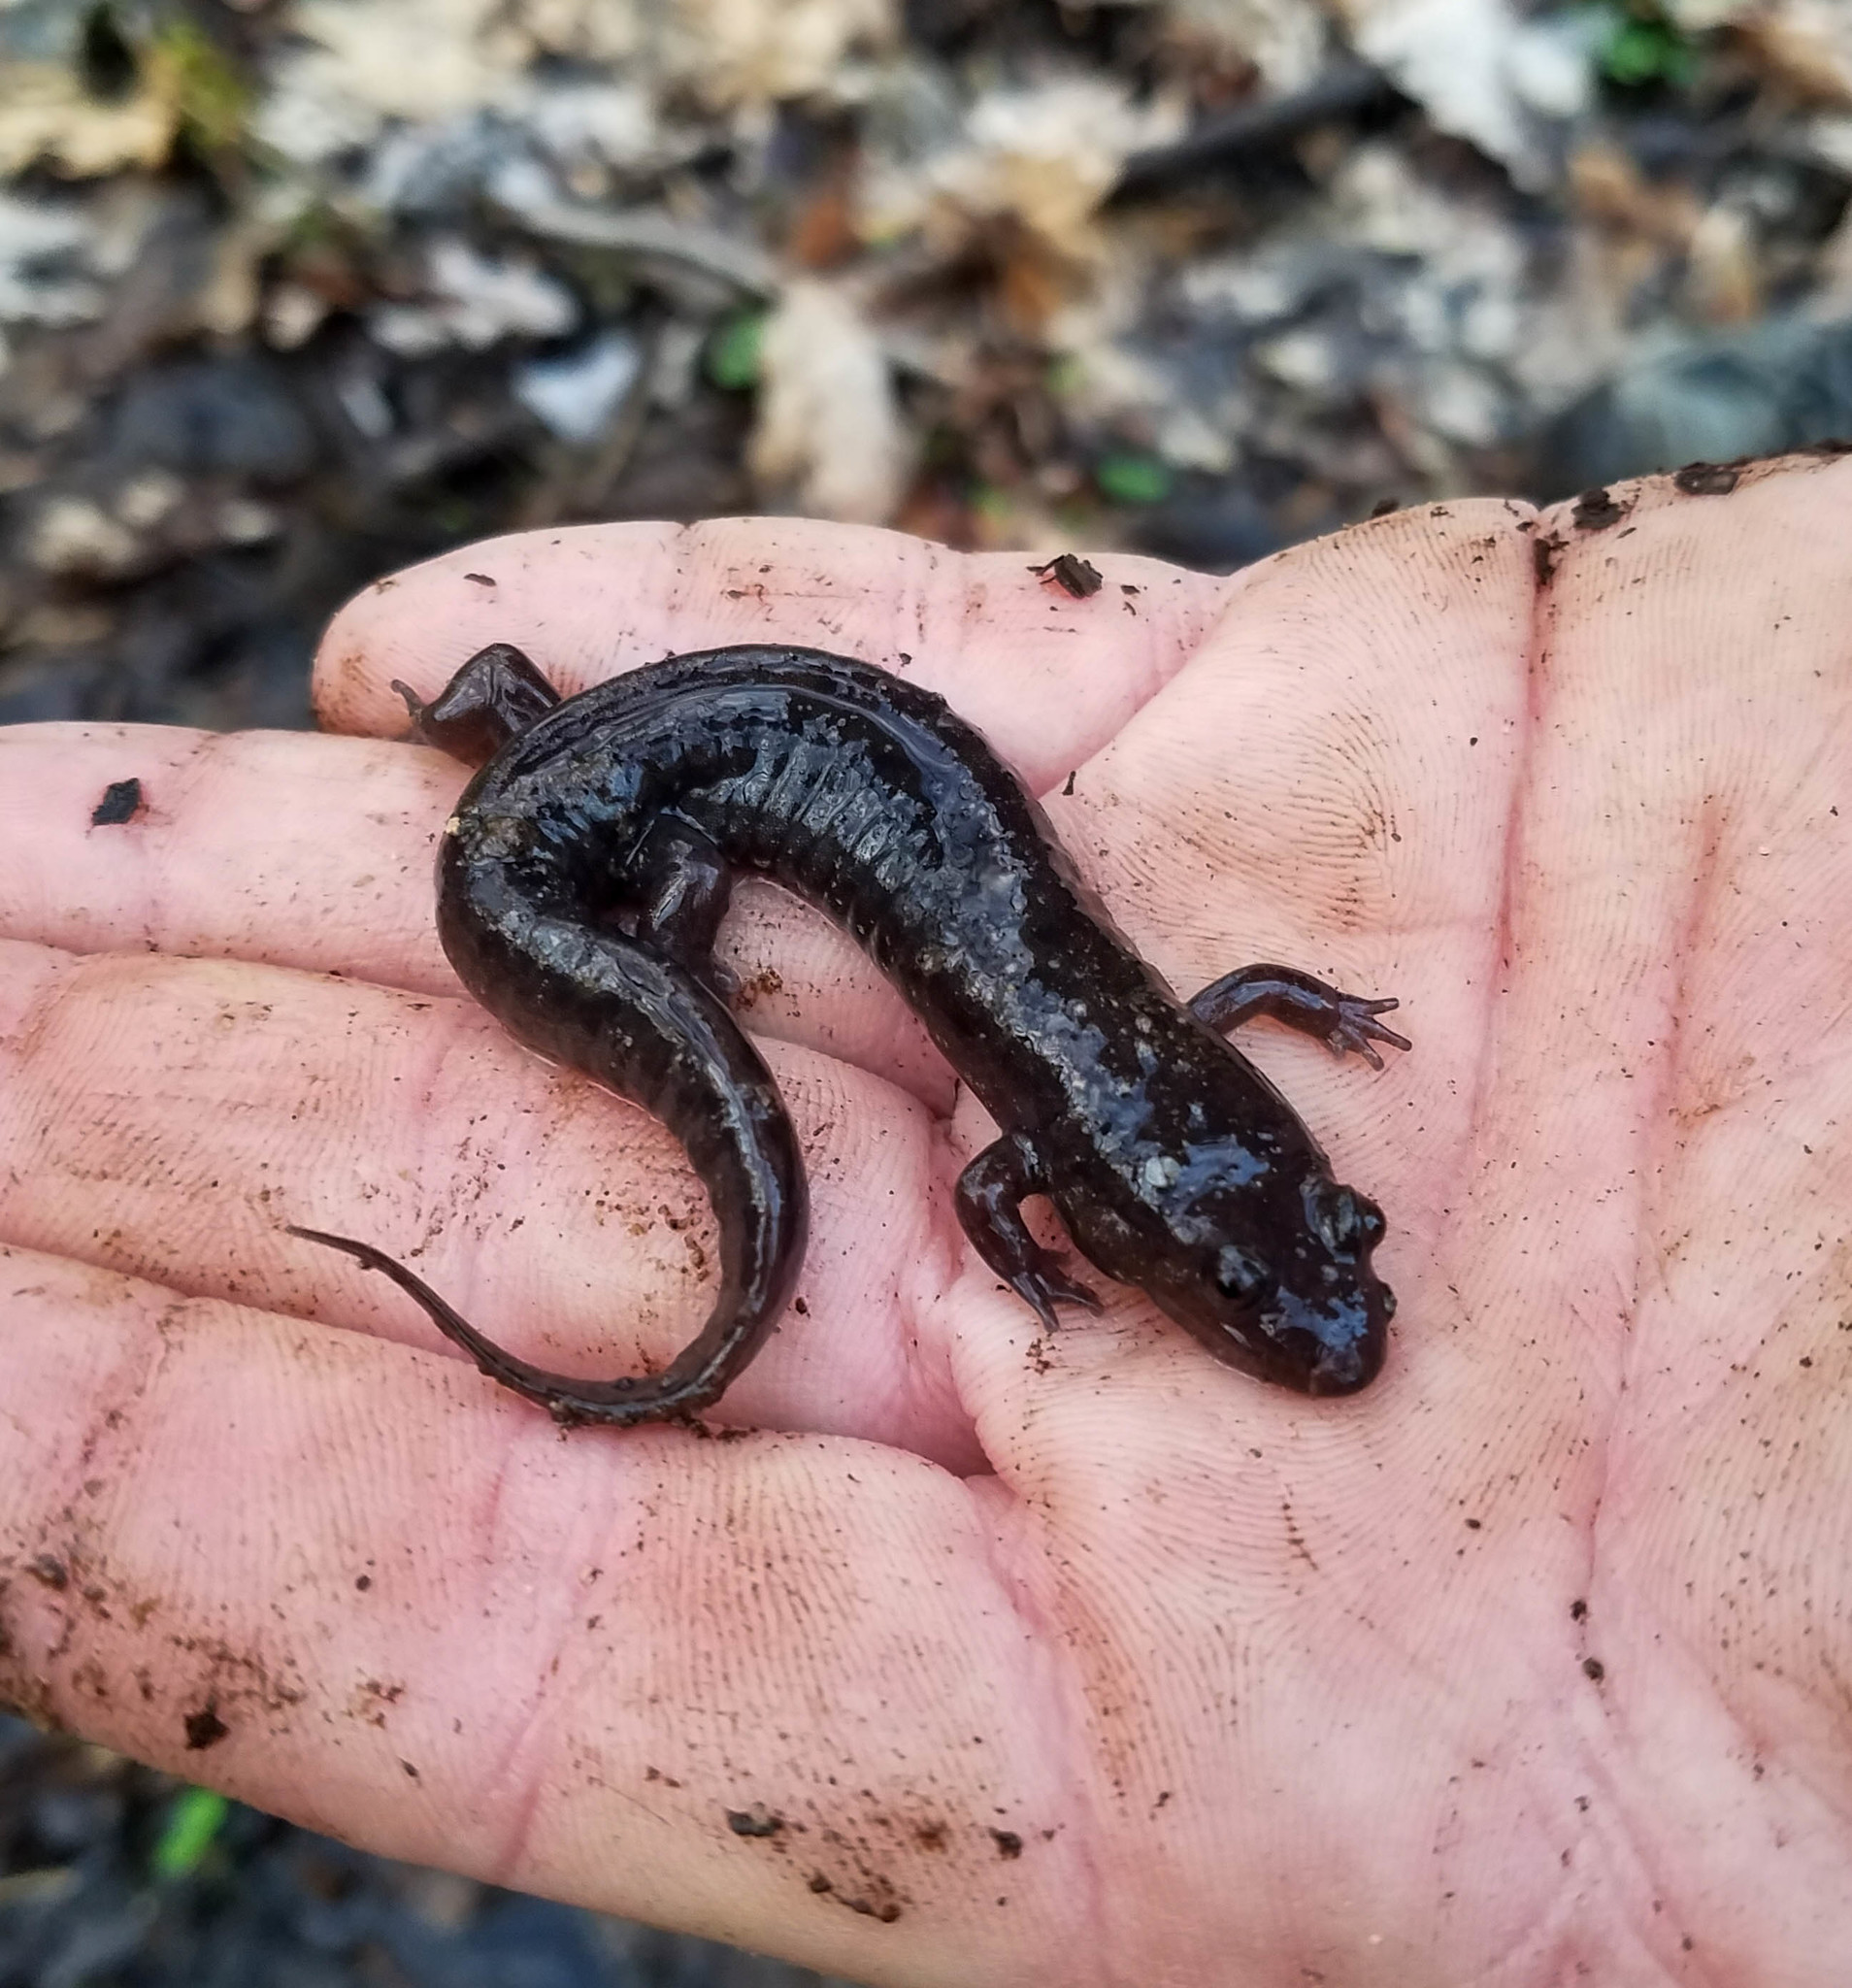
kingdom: Animalia
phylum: Chordata
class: Amphibia
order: Caudata
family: Plethodontidae
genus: Desmognathus
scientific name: Desmognathus monticola
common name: Seal salamander
